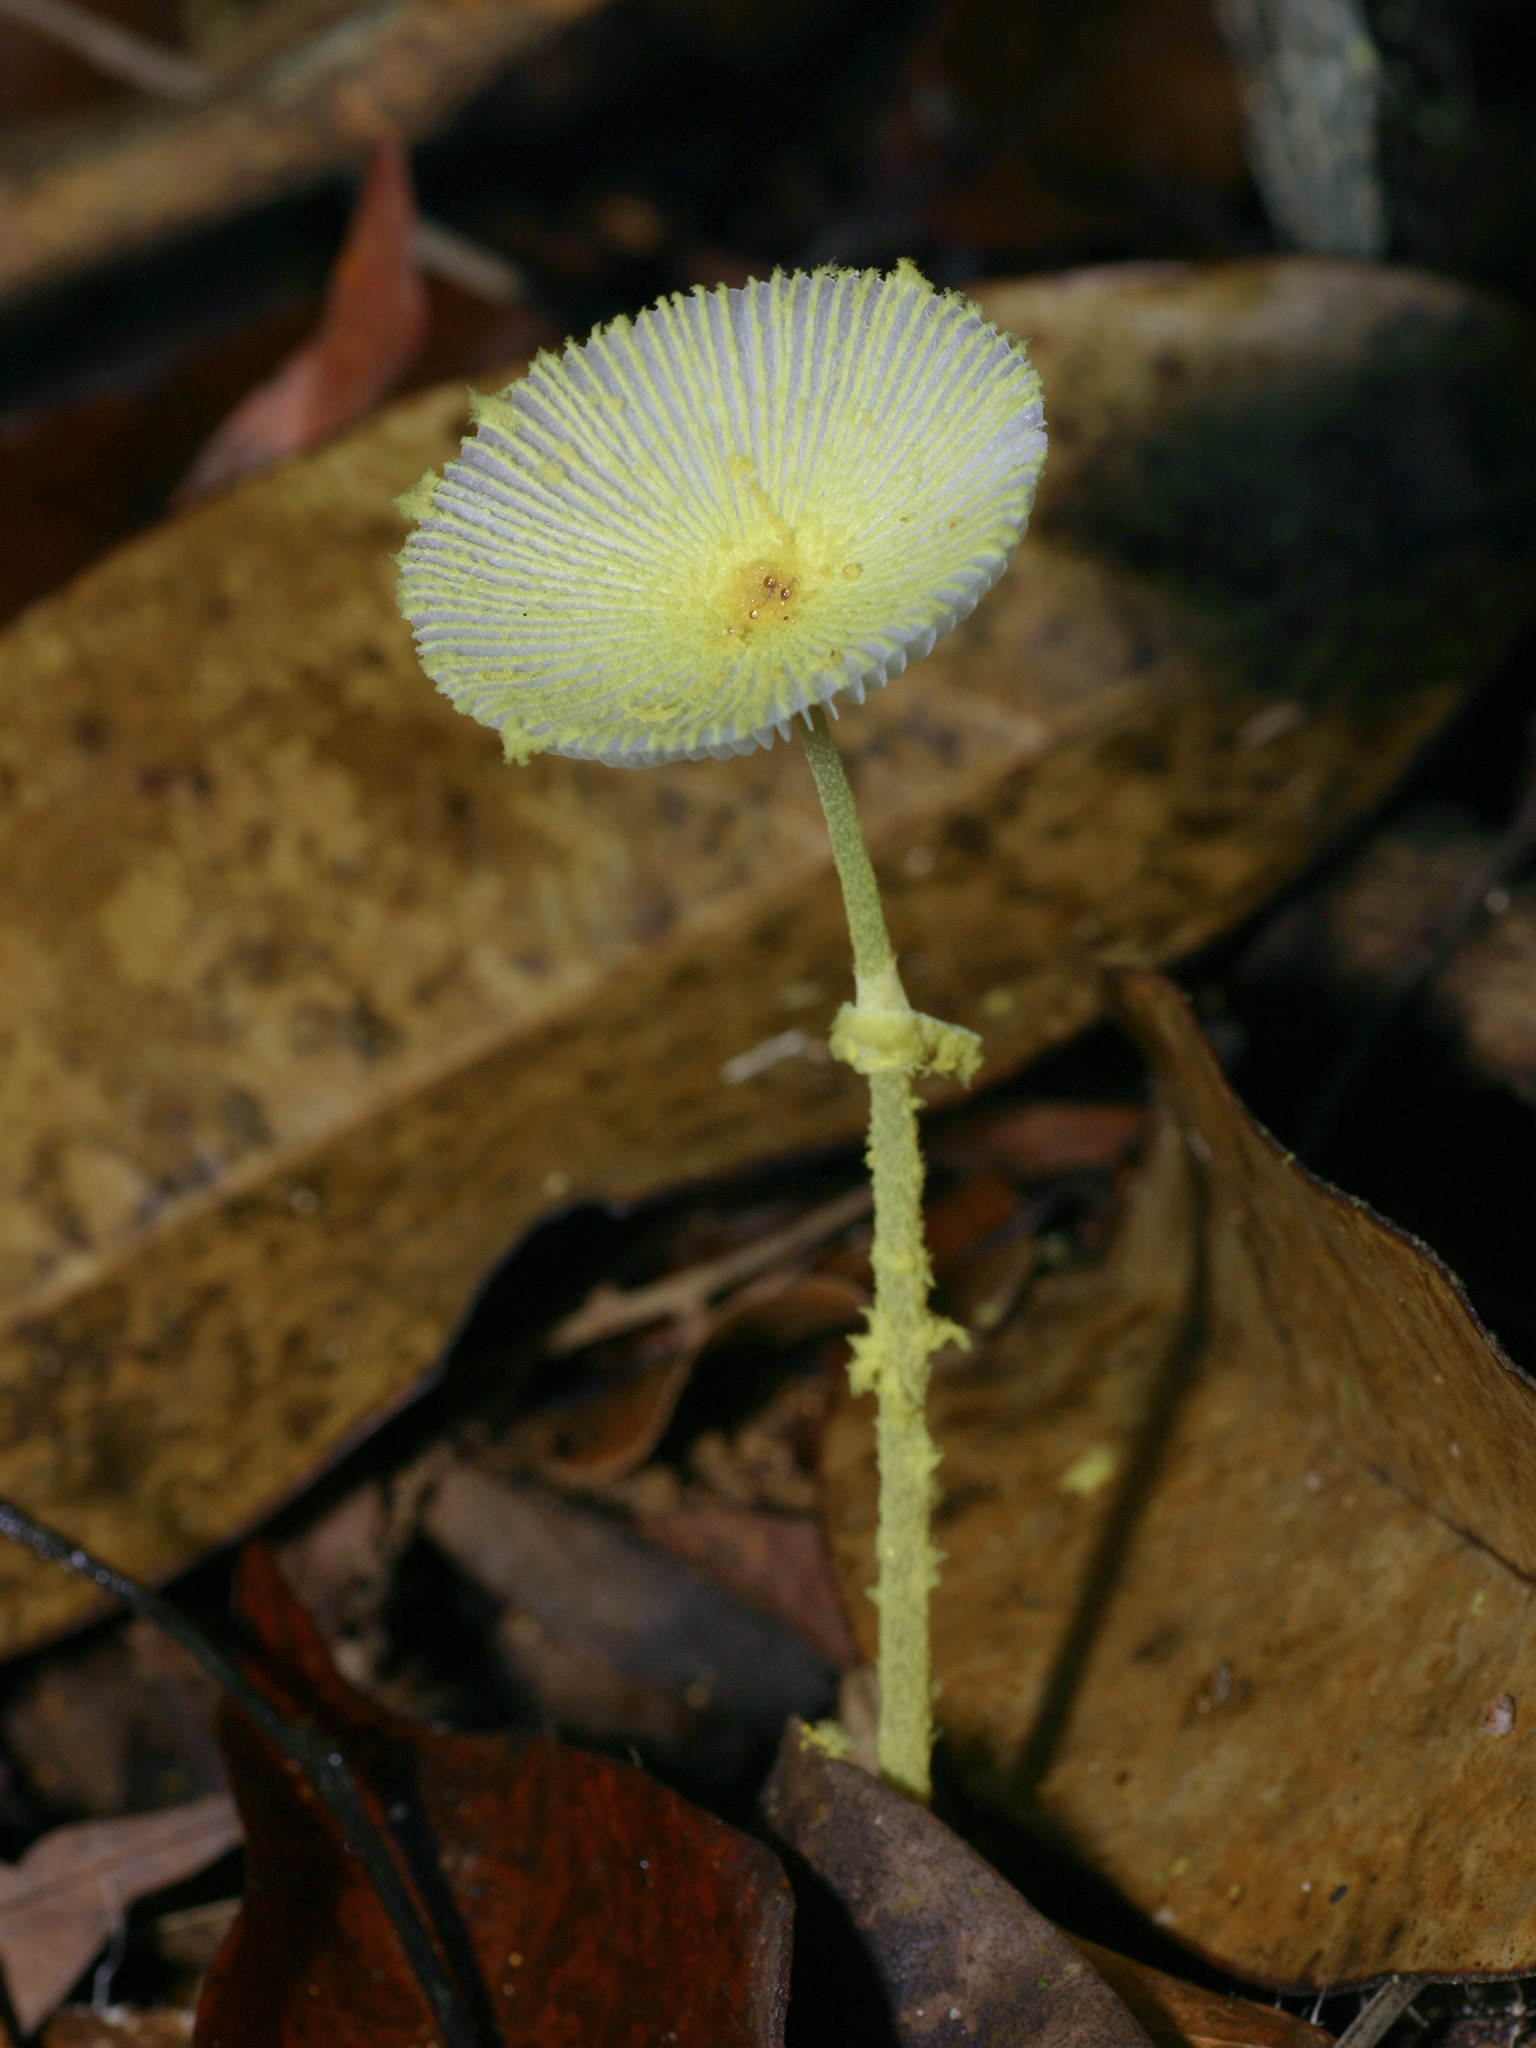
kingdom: Fungi
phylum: Basidiomycota
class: Agaricomycetes
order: Agaricales
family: Agaricaceae
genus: Leucocoprinus
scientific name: Leucocoprinus fragilissimus
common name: Fragile dapperling
